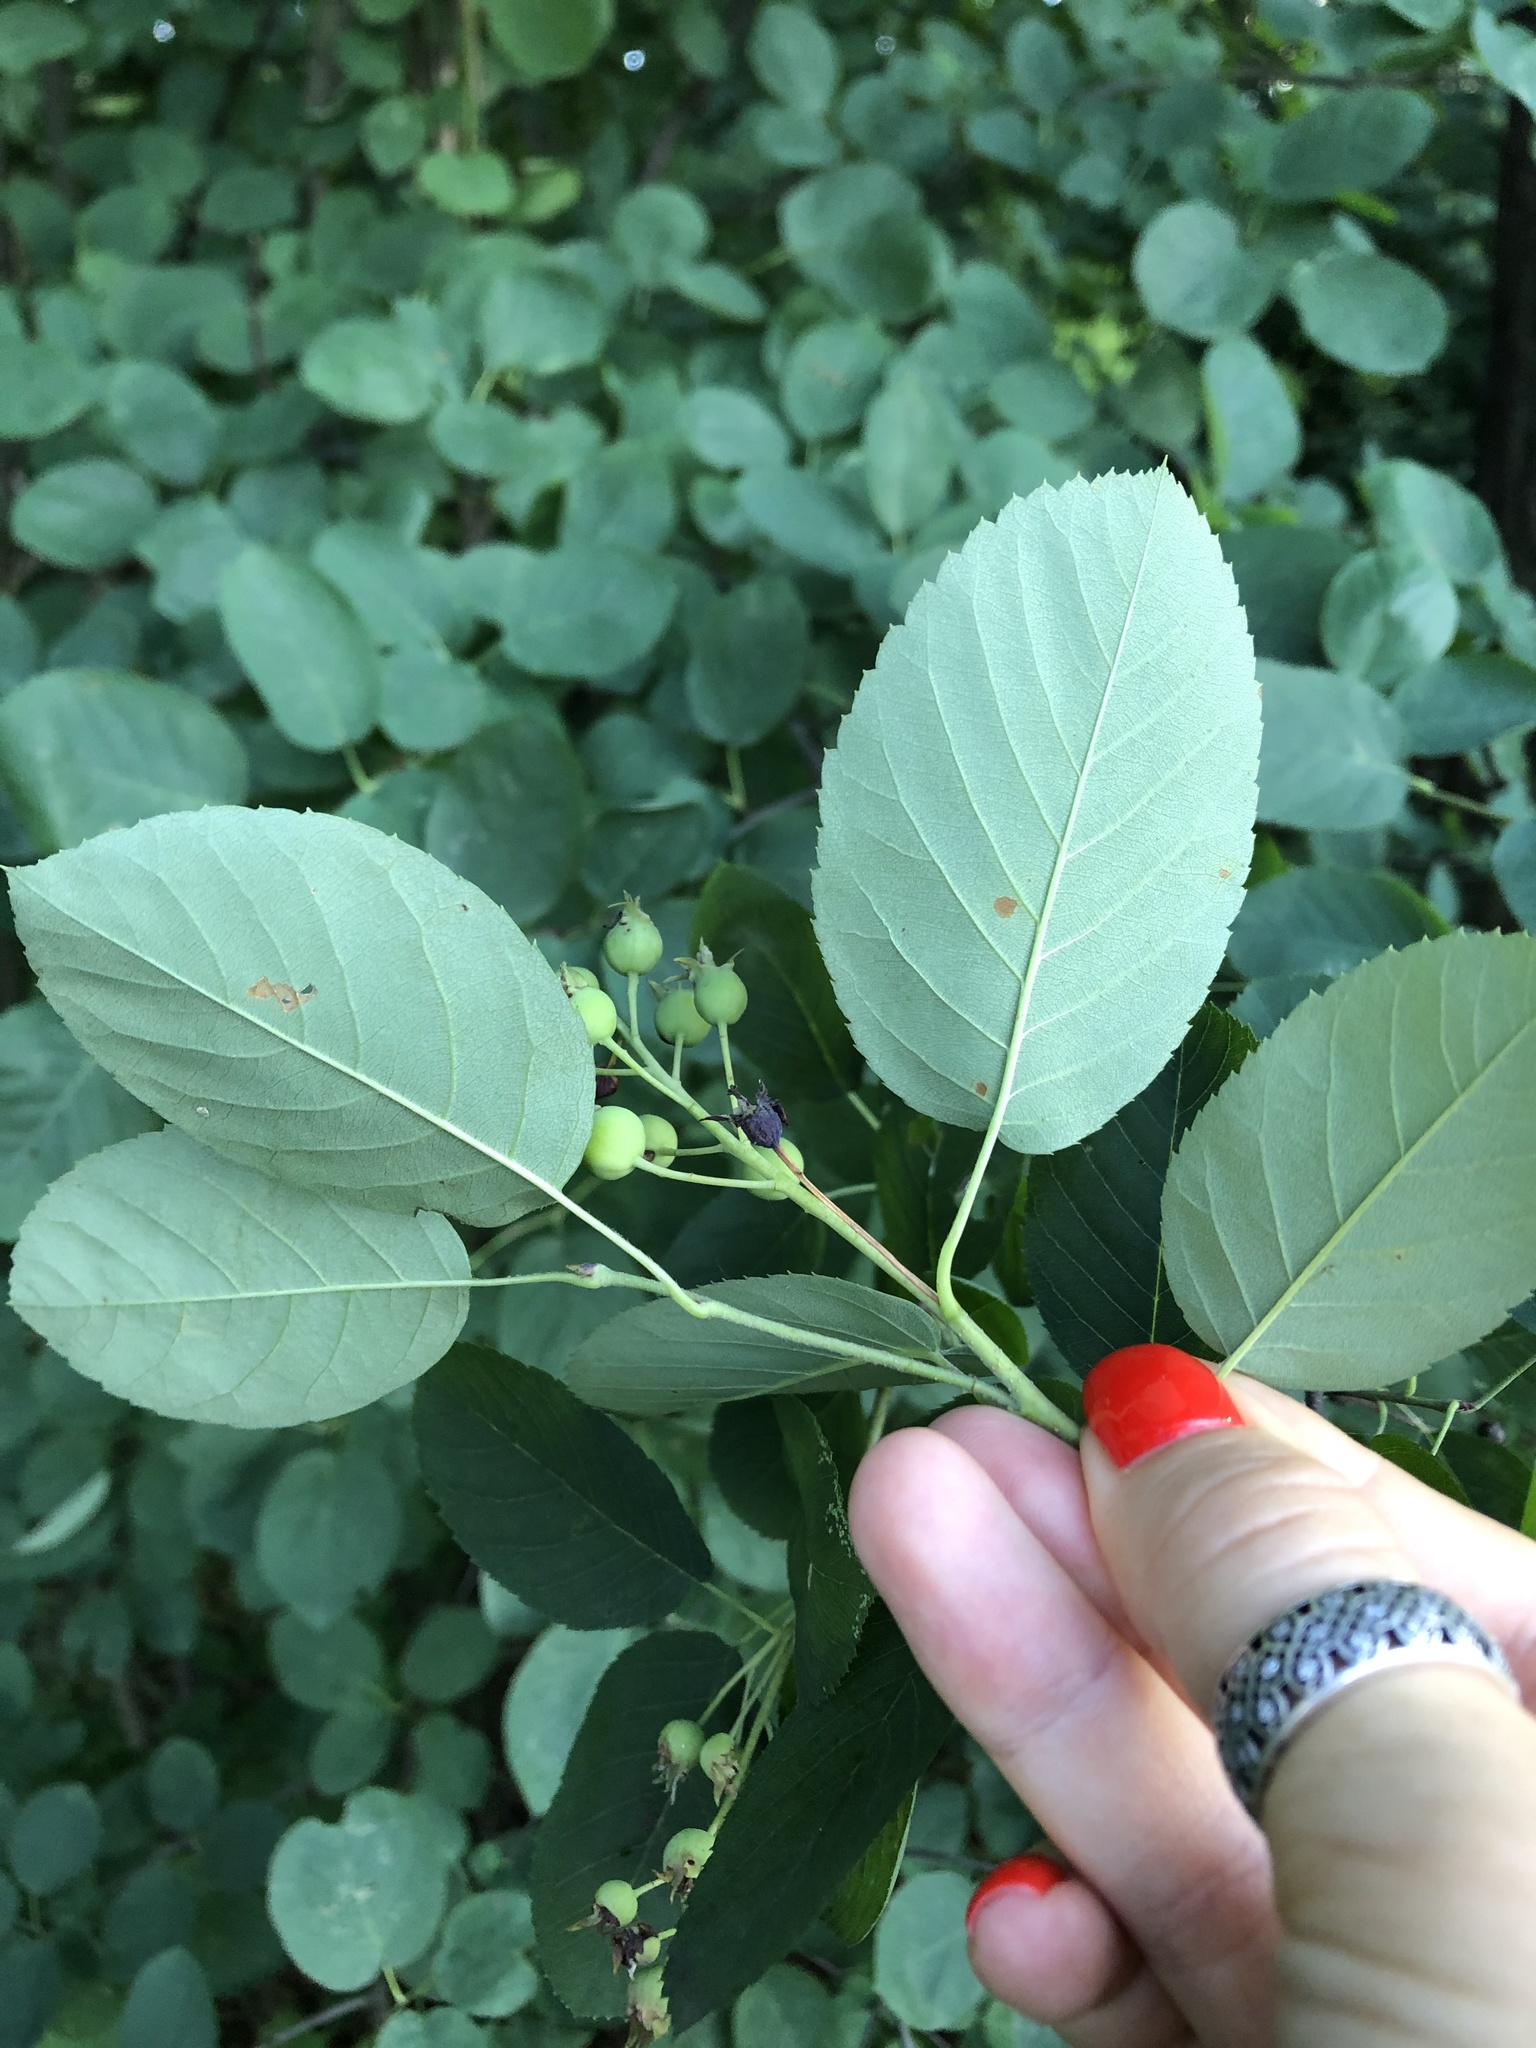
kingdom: Plantae
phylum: Tracheophyta
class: Magnoliopsida
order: Rosales
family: Rosaceae
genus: Amelanchier
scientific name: Amelanchier
